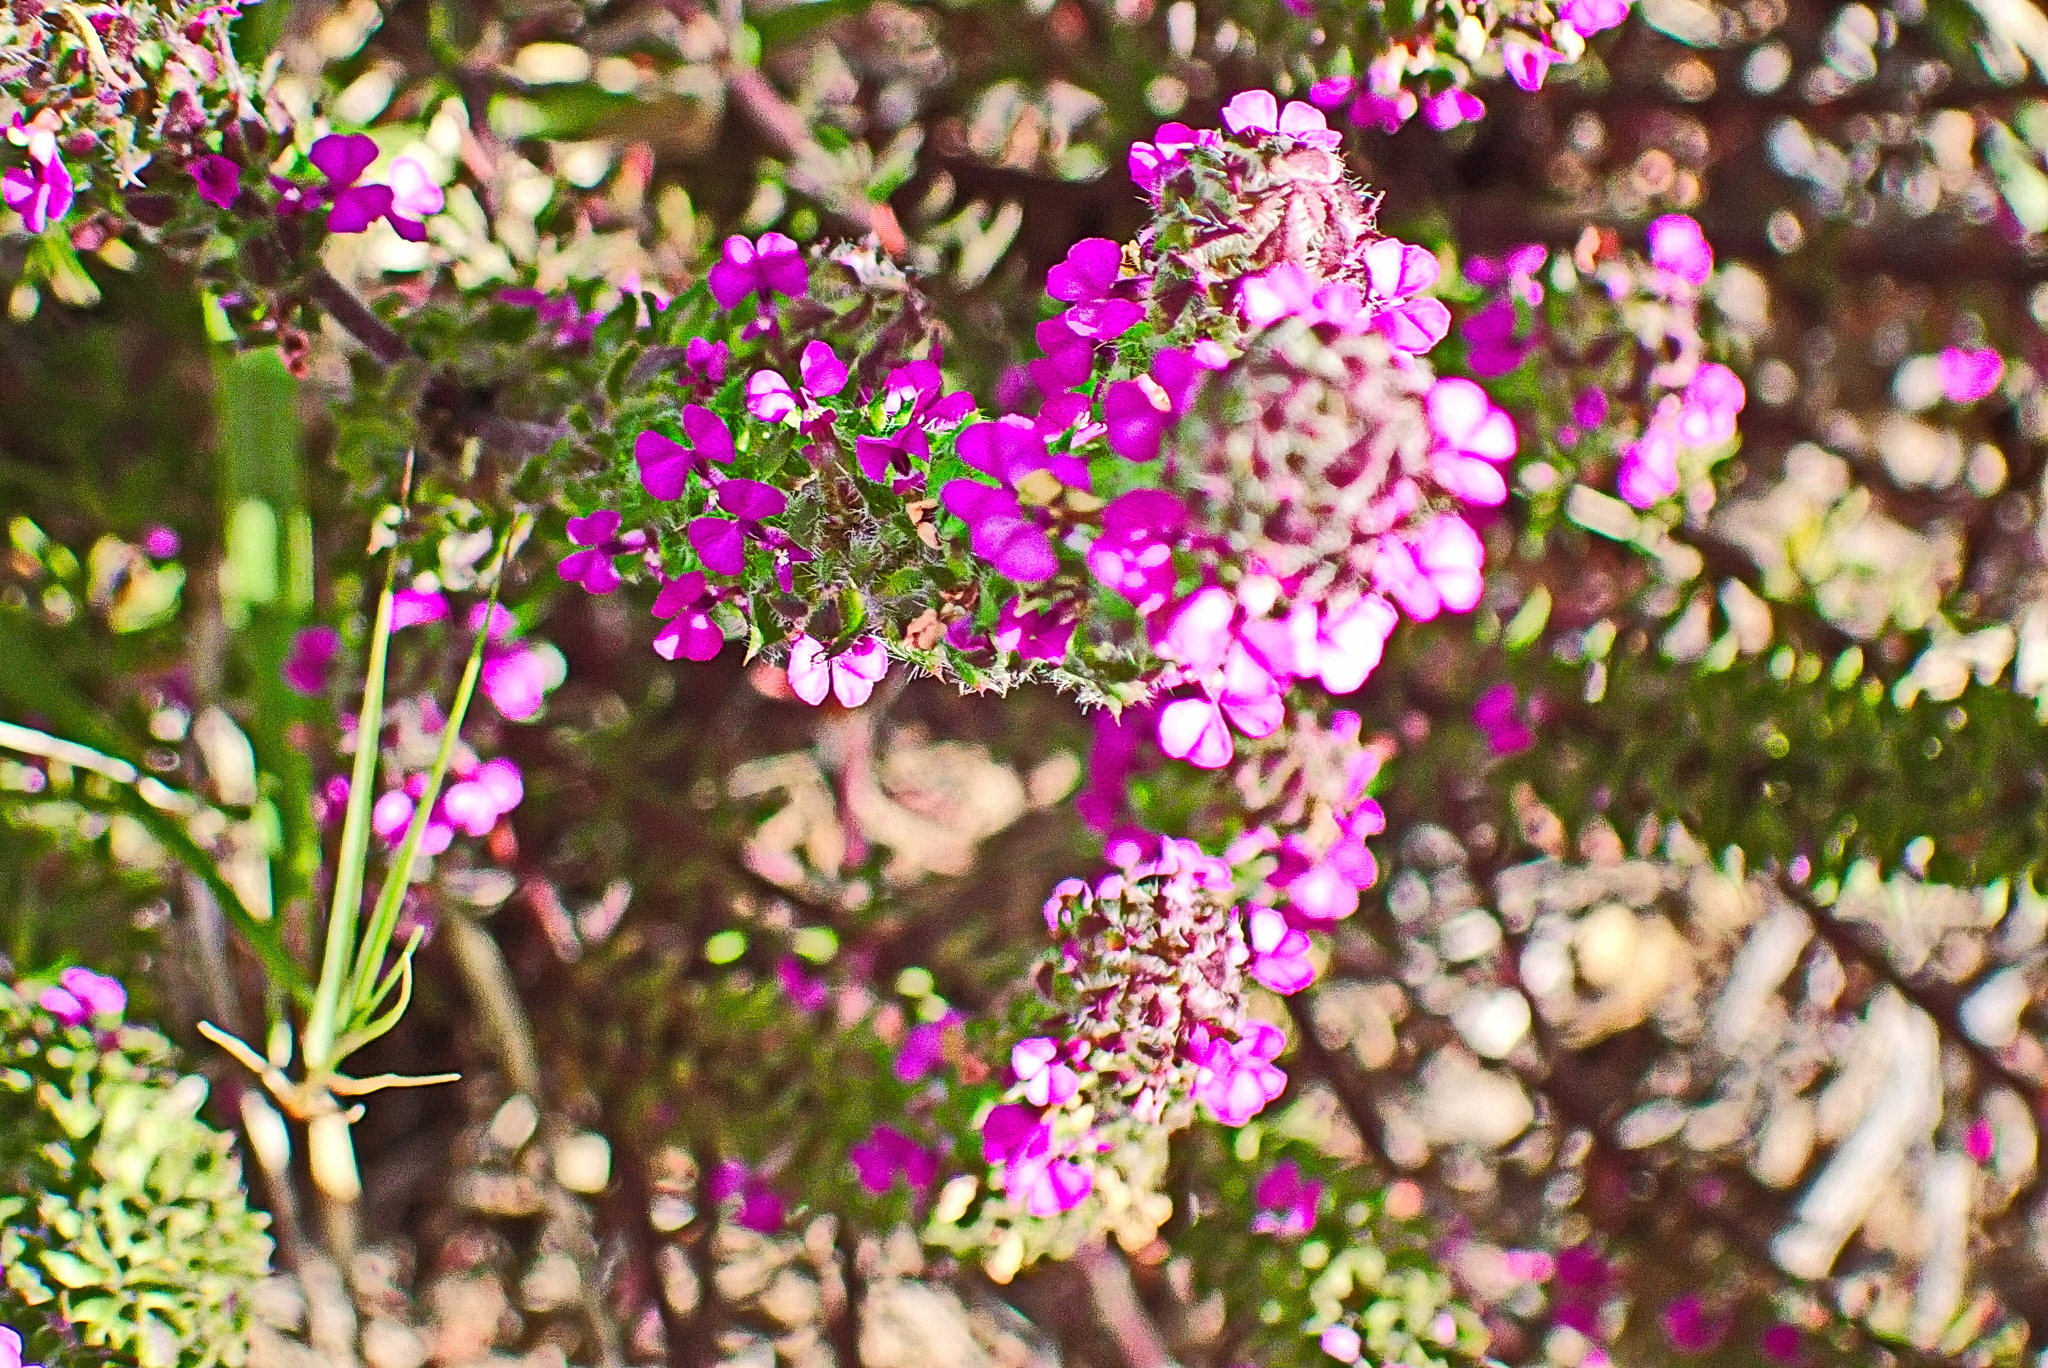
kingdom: Plantae
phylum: Tracheophyta
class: Magnoliopsida
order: Fabales
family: Polygalaceae
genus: Muraltia
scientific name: Muraltia alopecuroides
